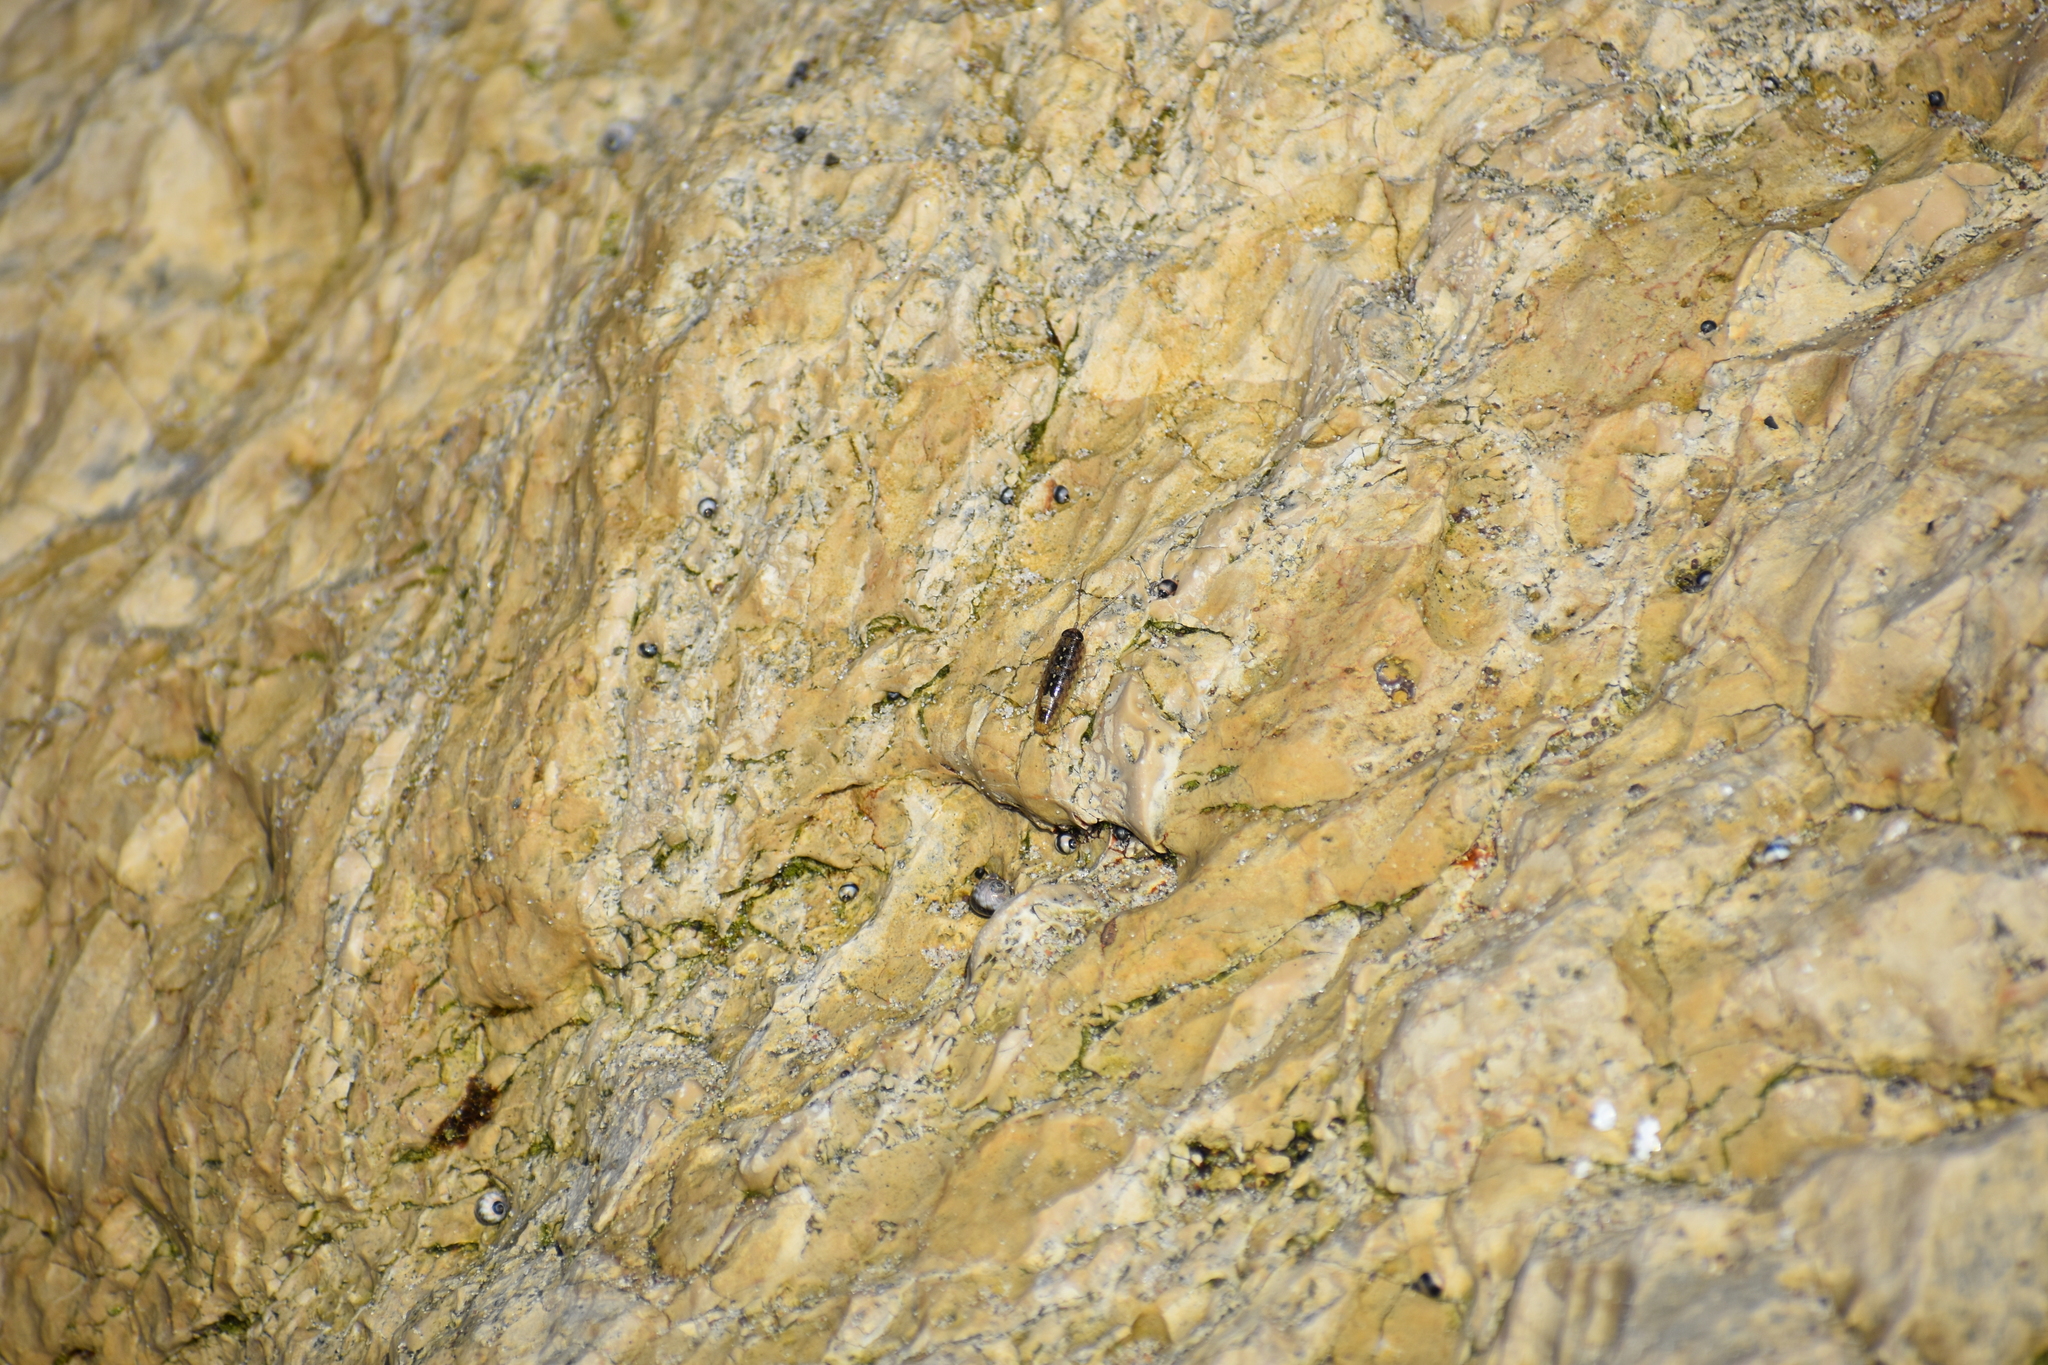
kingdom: Animalia
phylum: Arthropoda
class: Malacostraca
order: Isopoda
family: Ligiidae
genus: Ligia
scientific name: Ligia occidentalis
